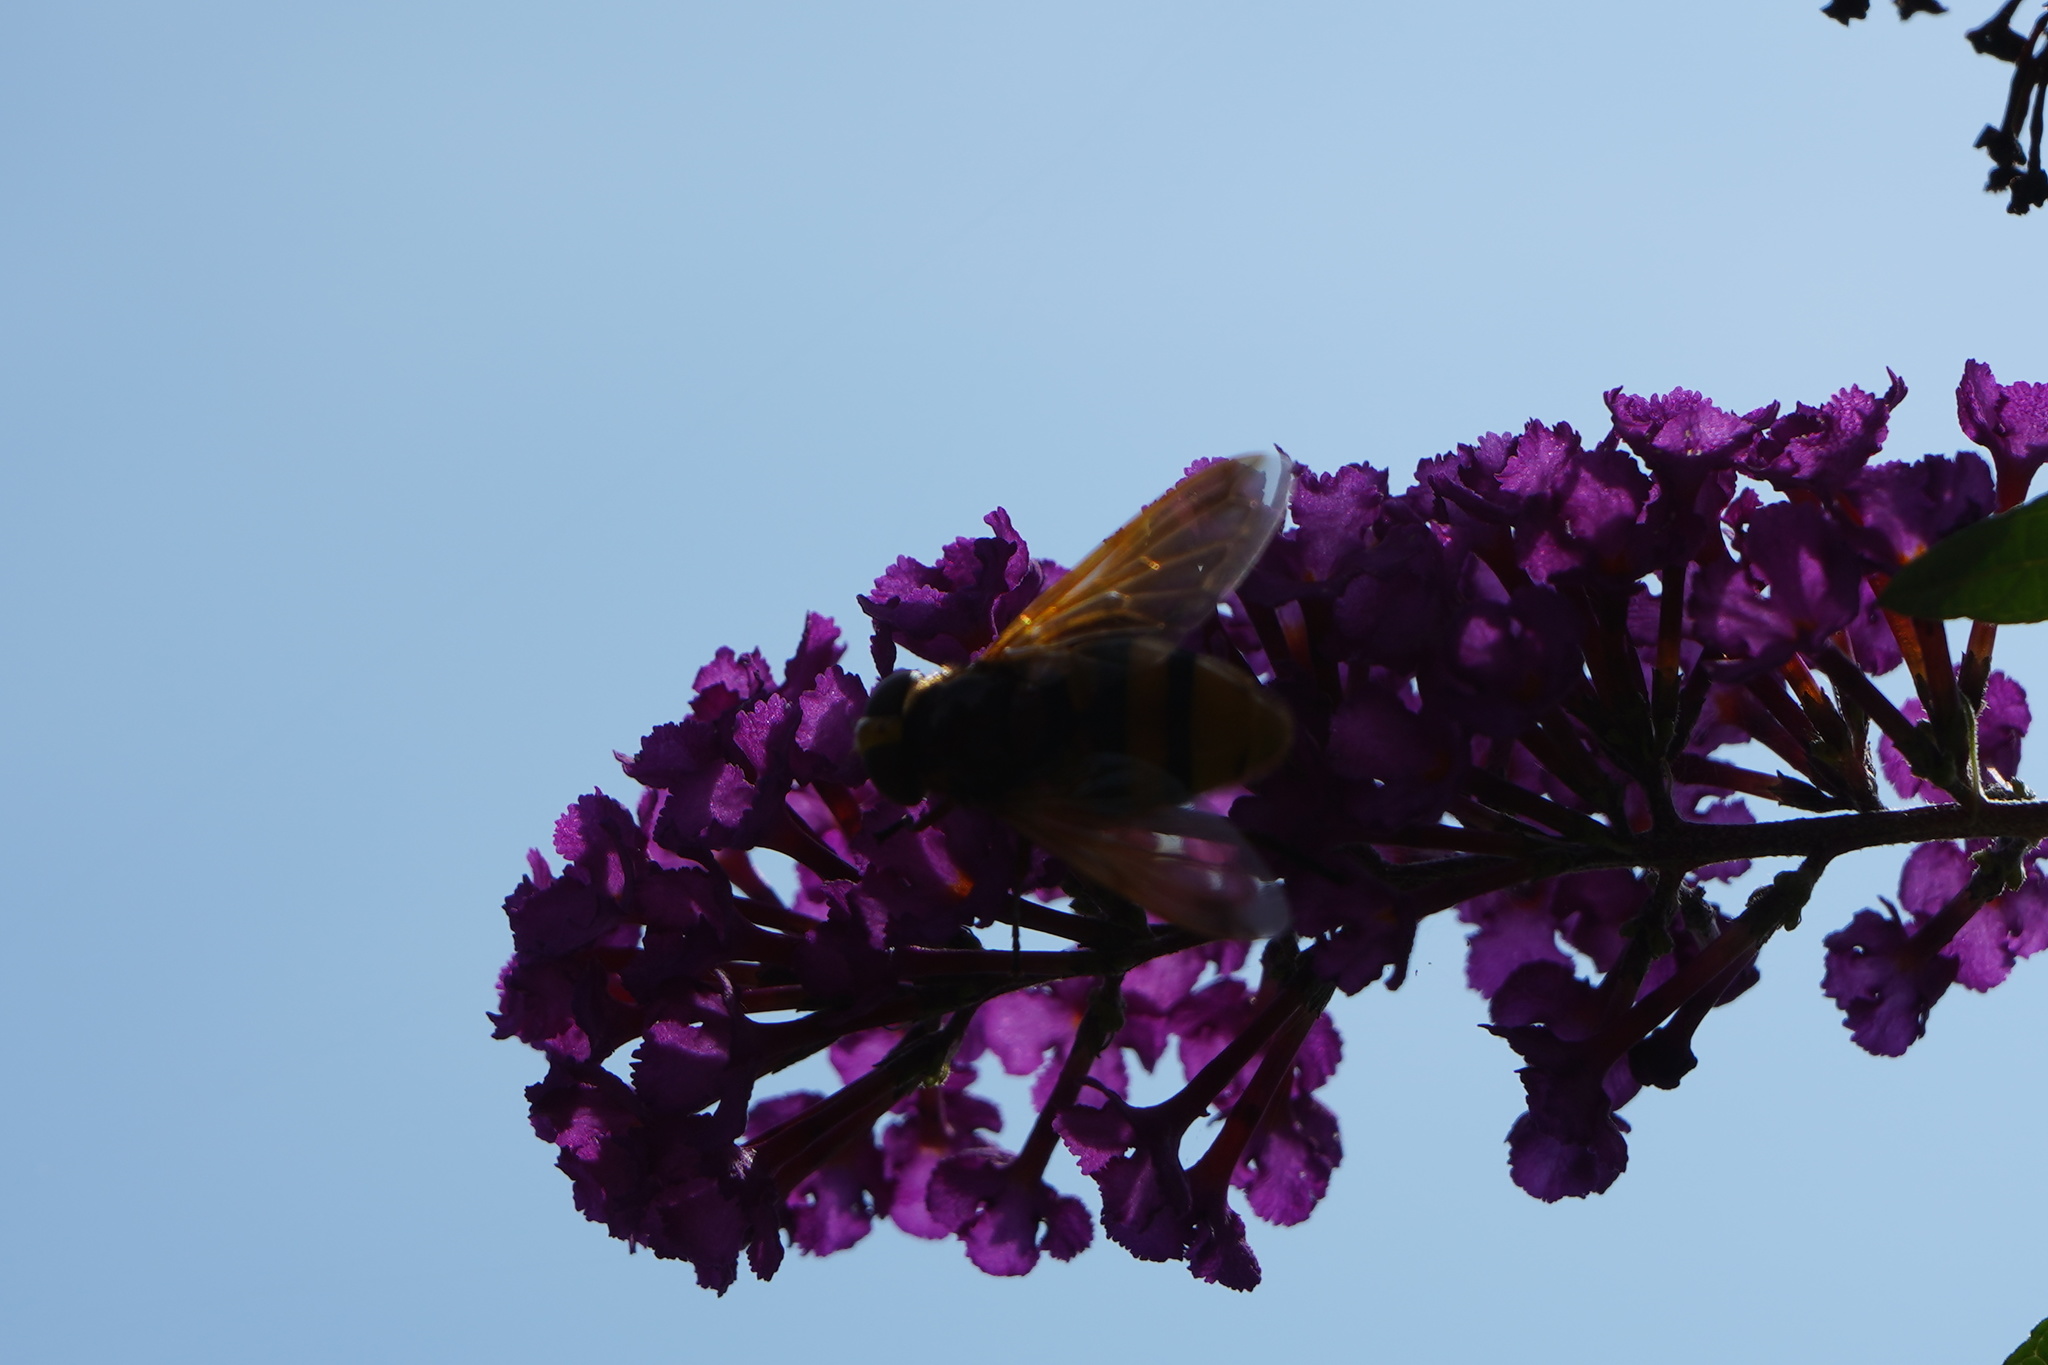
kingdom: Animalia
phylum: Arthropoda
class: Insecta
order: Diptera
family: Syrphidae
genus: Volucella
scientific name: Volucella zonaria
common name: Hornet hoverfly
